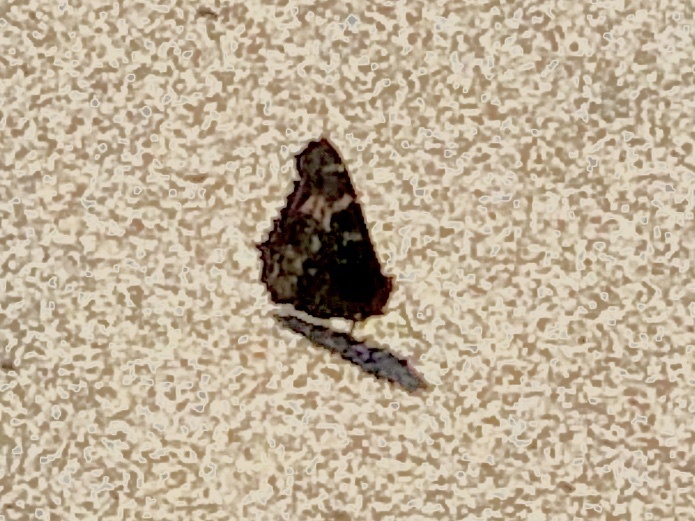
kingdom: Animalia
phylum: Arthropoda
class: Insecta
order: Lepidoptera
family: Nymphalidae
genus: Nymphalis
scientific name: Nymphalis californica
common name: California tortoiseshell
